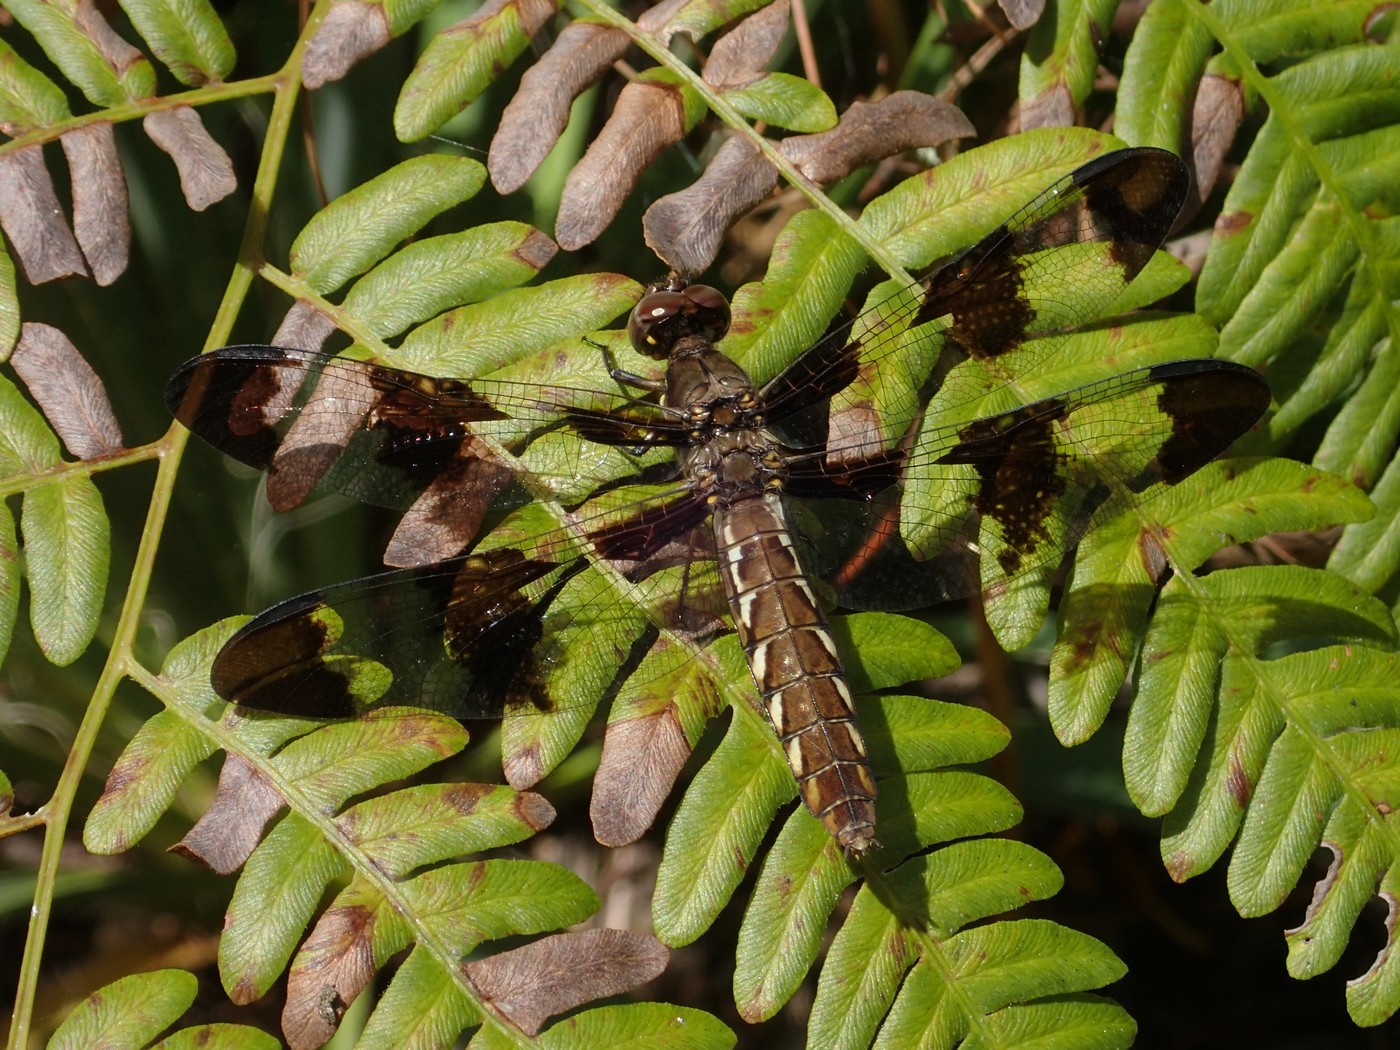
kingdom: Animalia
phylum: Arthropoda
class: Insecta
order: Odonata
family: Libellulidae
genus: Plathemis
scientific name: Plathemis lydia
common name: Common whitetail
